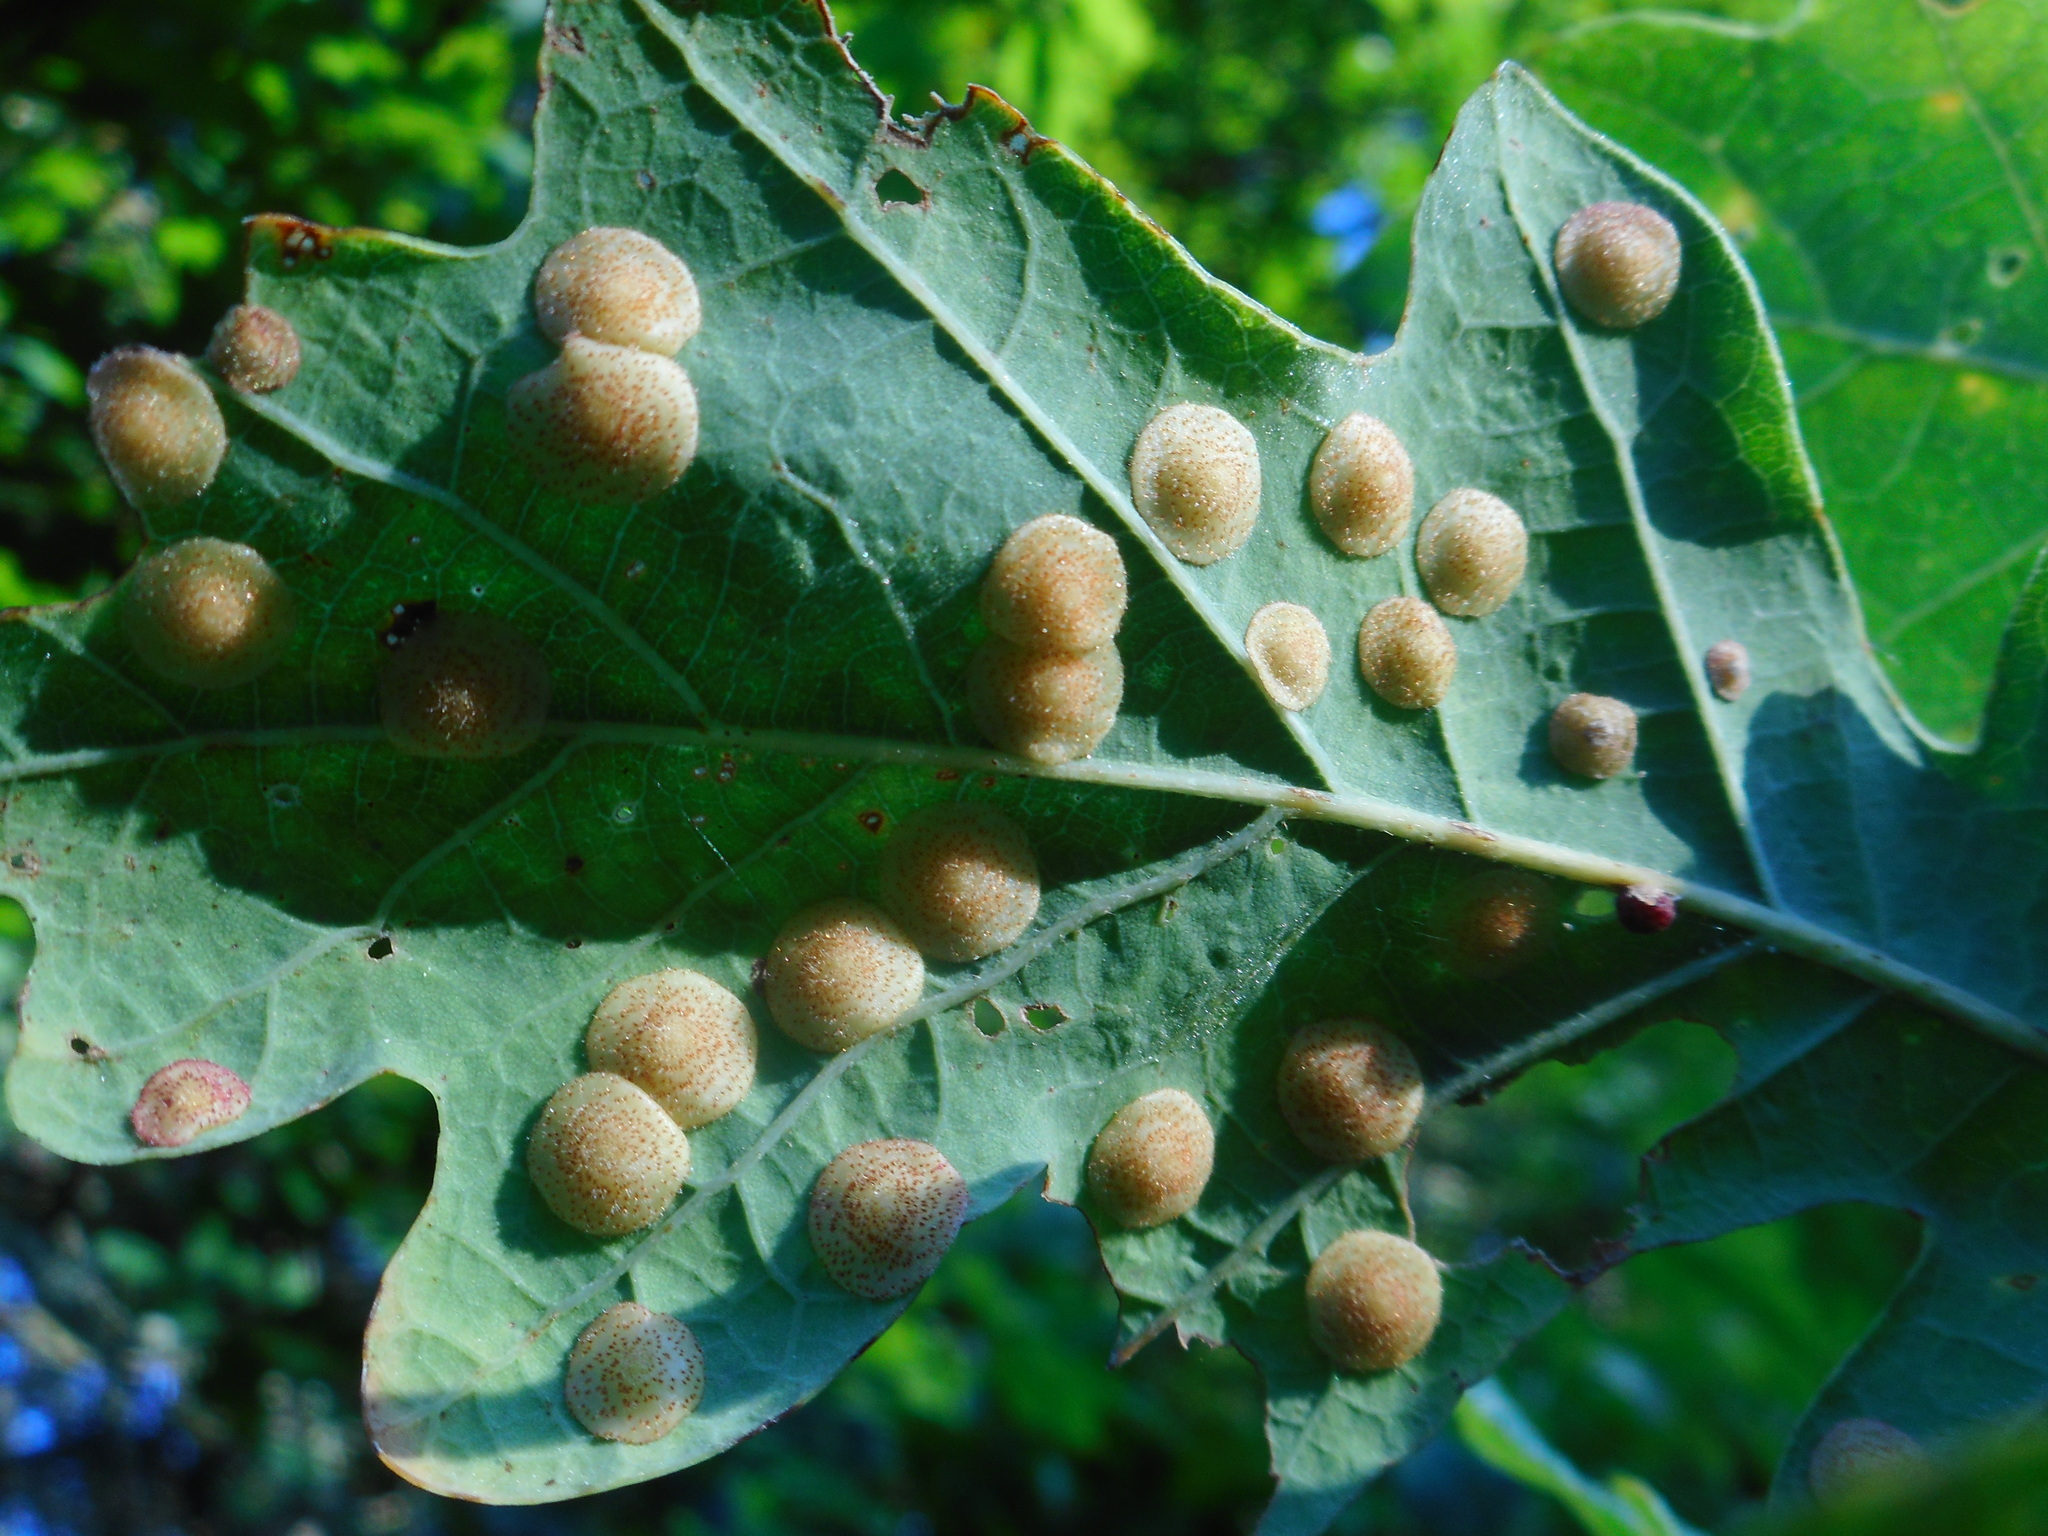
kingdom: Animalia
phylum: Arthropoda
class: Insecta
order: Hymenoptera
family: Cynipidae
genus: Neuroterus
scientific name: Neuroterus quercusbaccarum
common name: Common spangle gall
